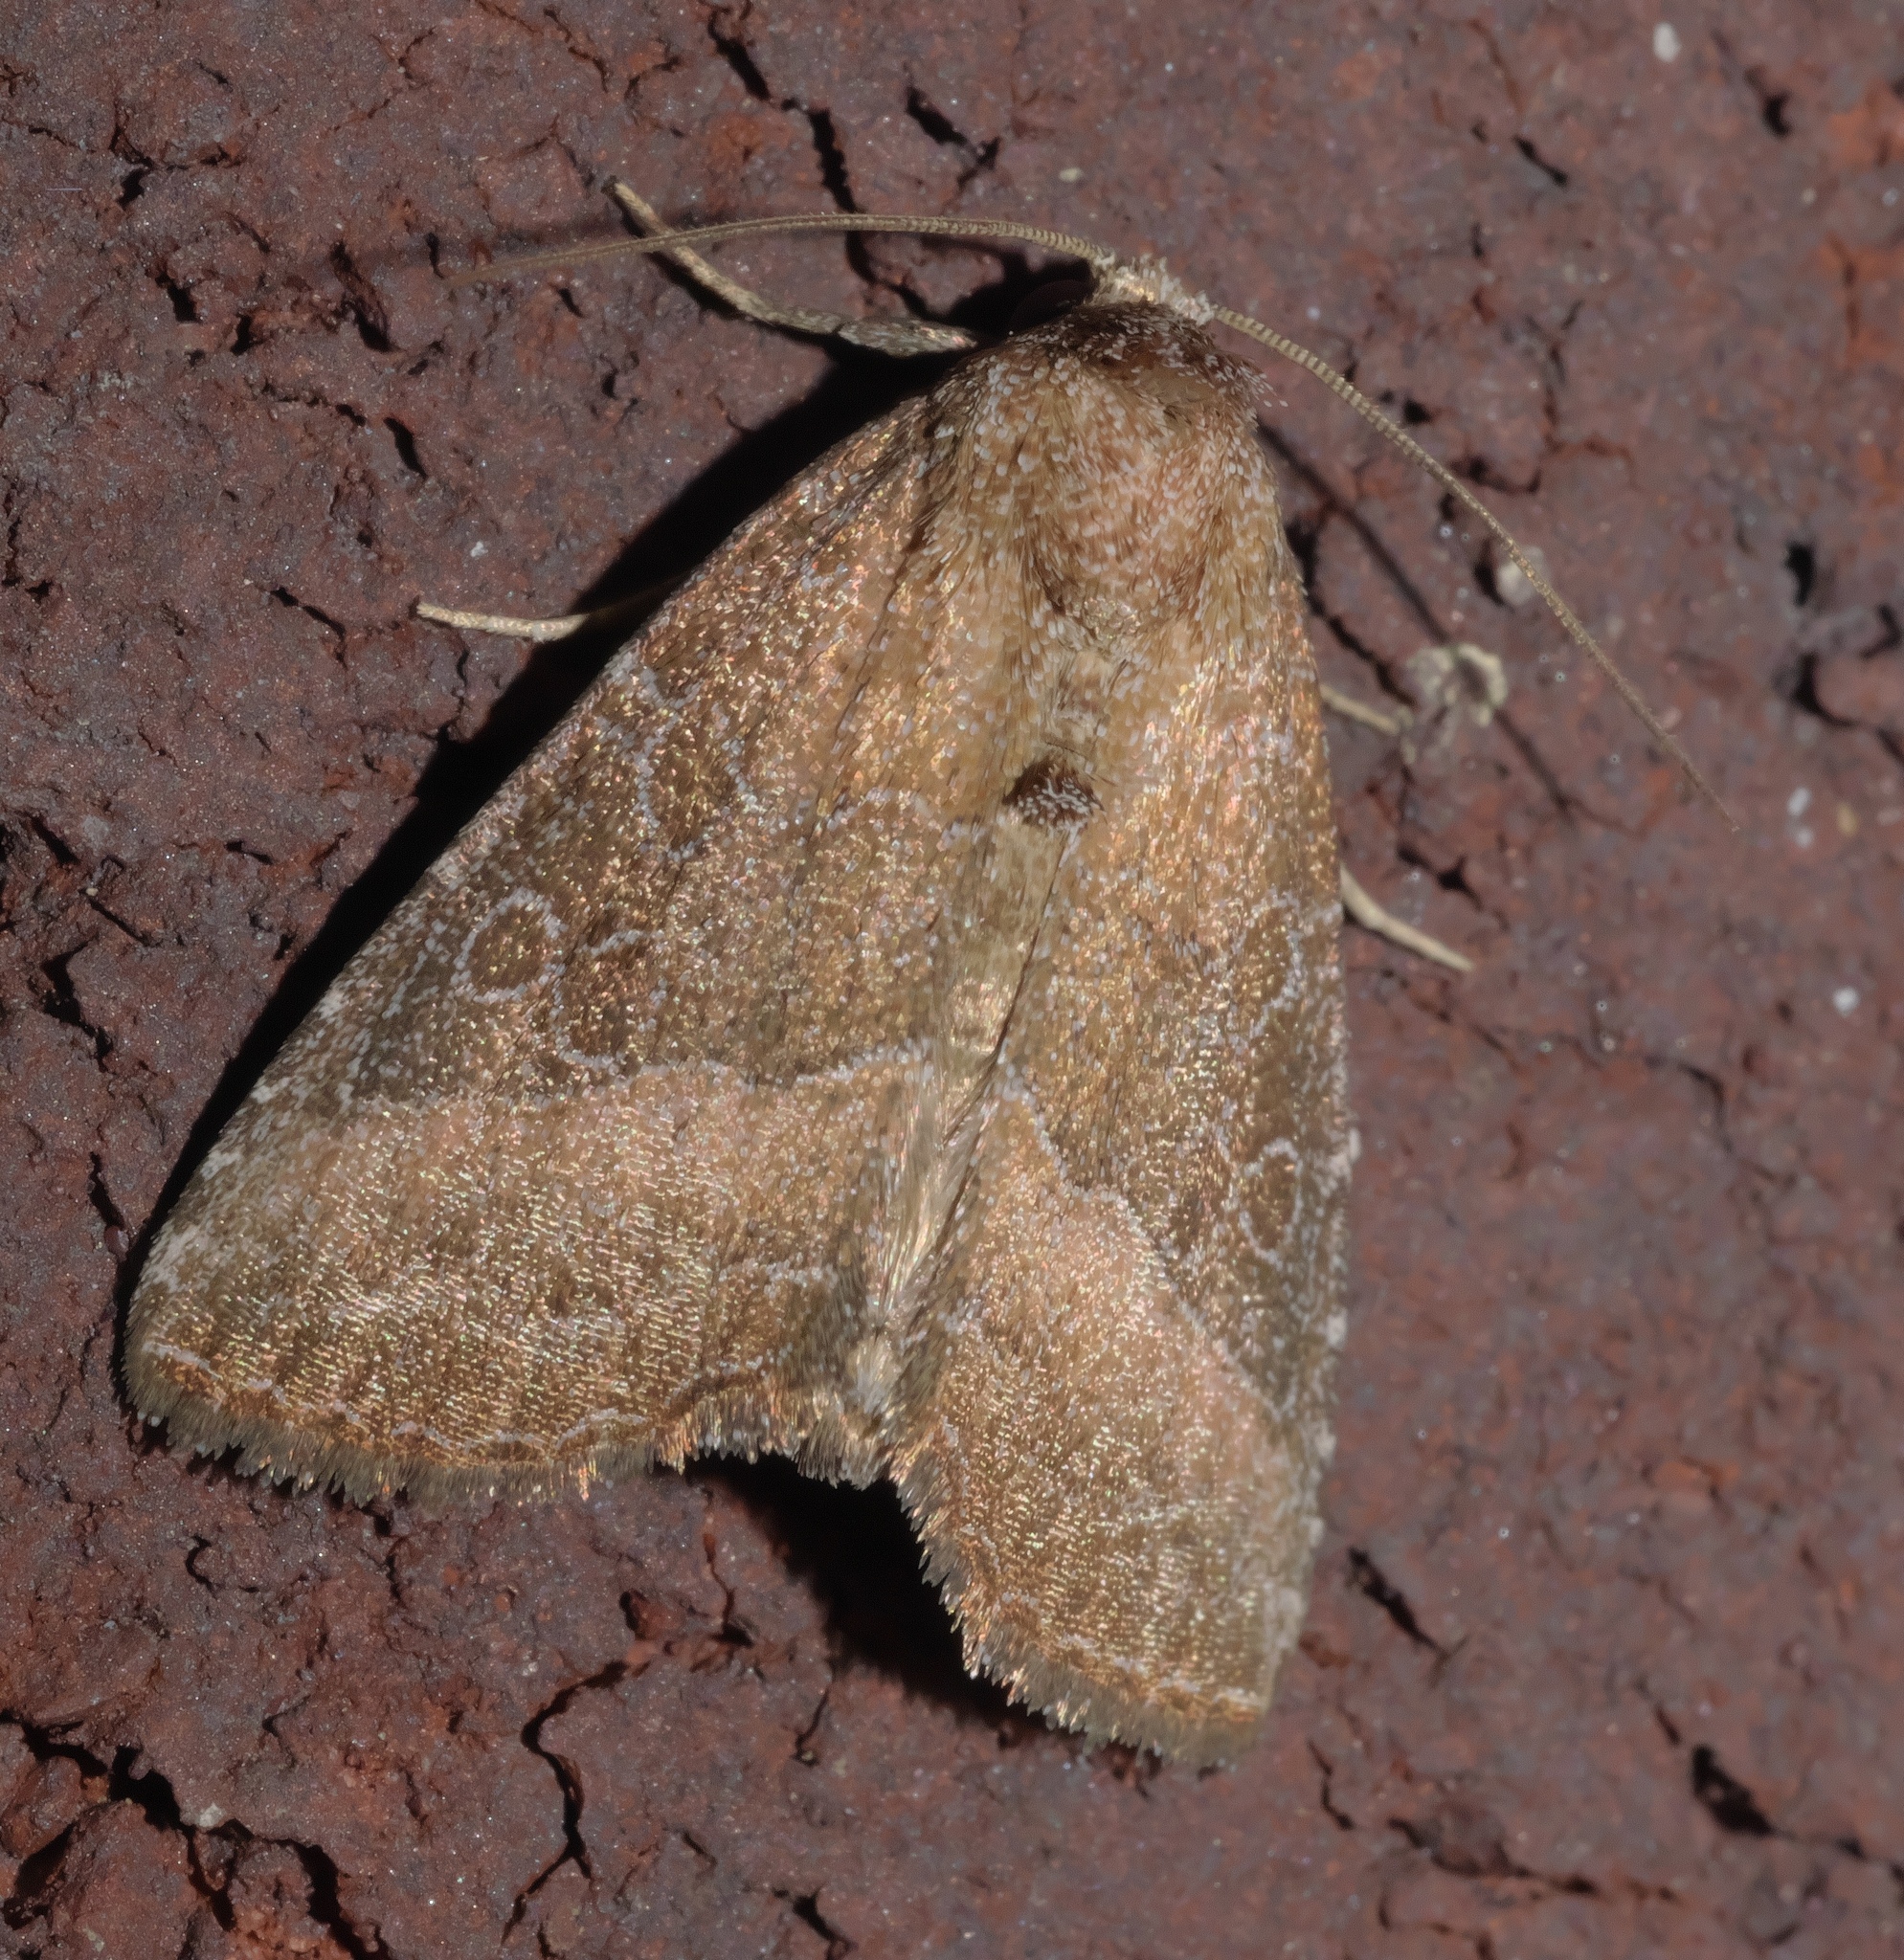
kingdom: Animalia
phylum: Arthropoda
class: Insecta
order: Lepidoptera
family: Noctuidae
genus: Ogdoconta
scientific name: Ogdoconta cinereola
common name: Common pinkband
